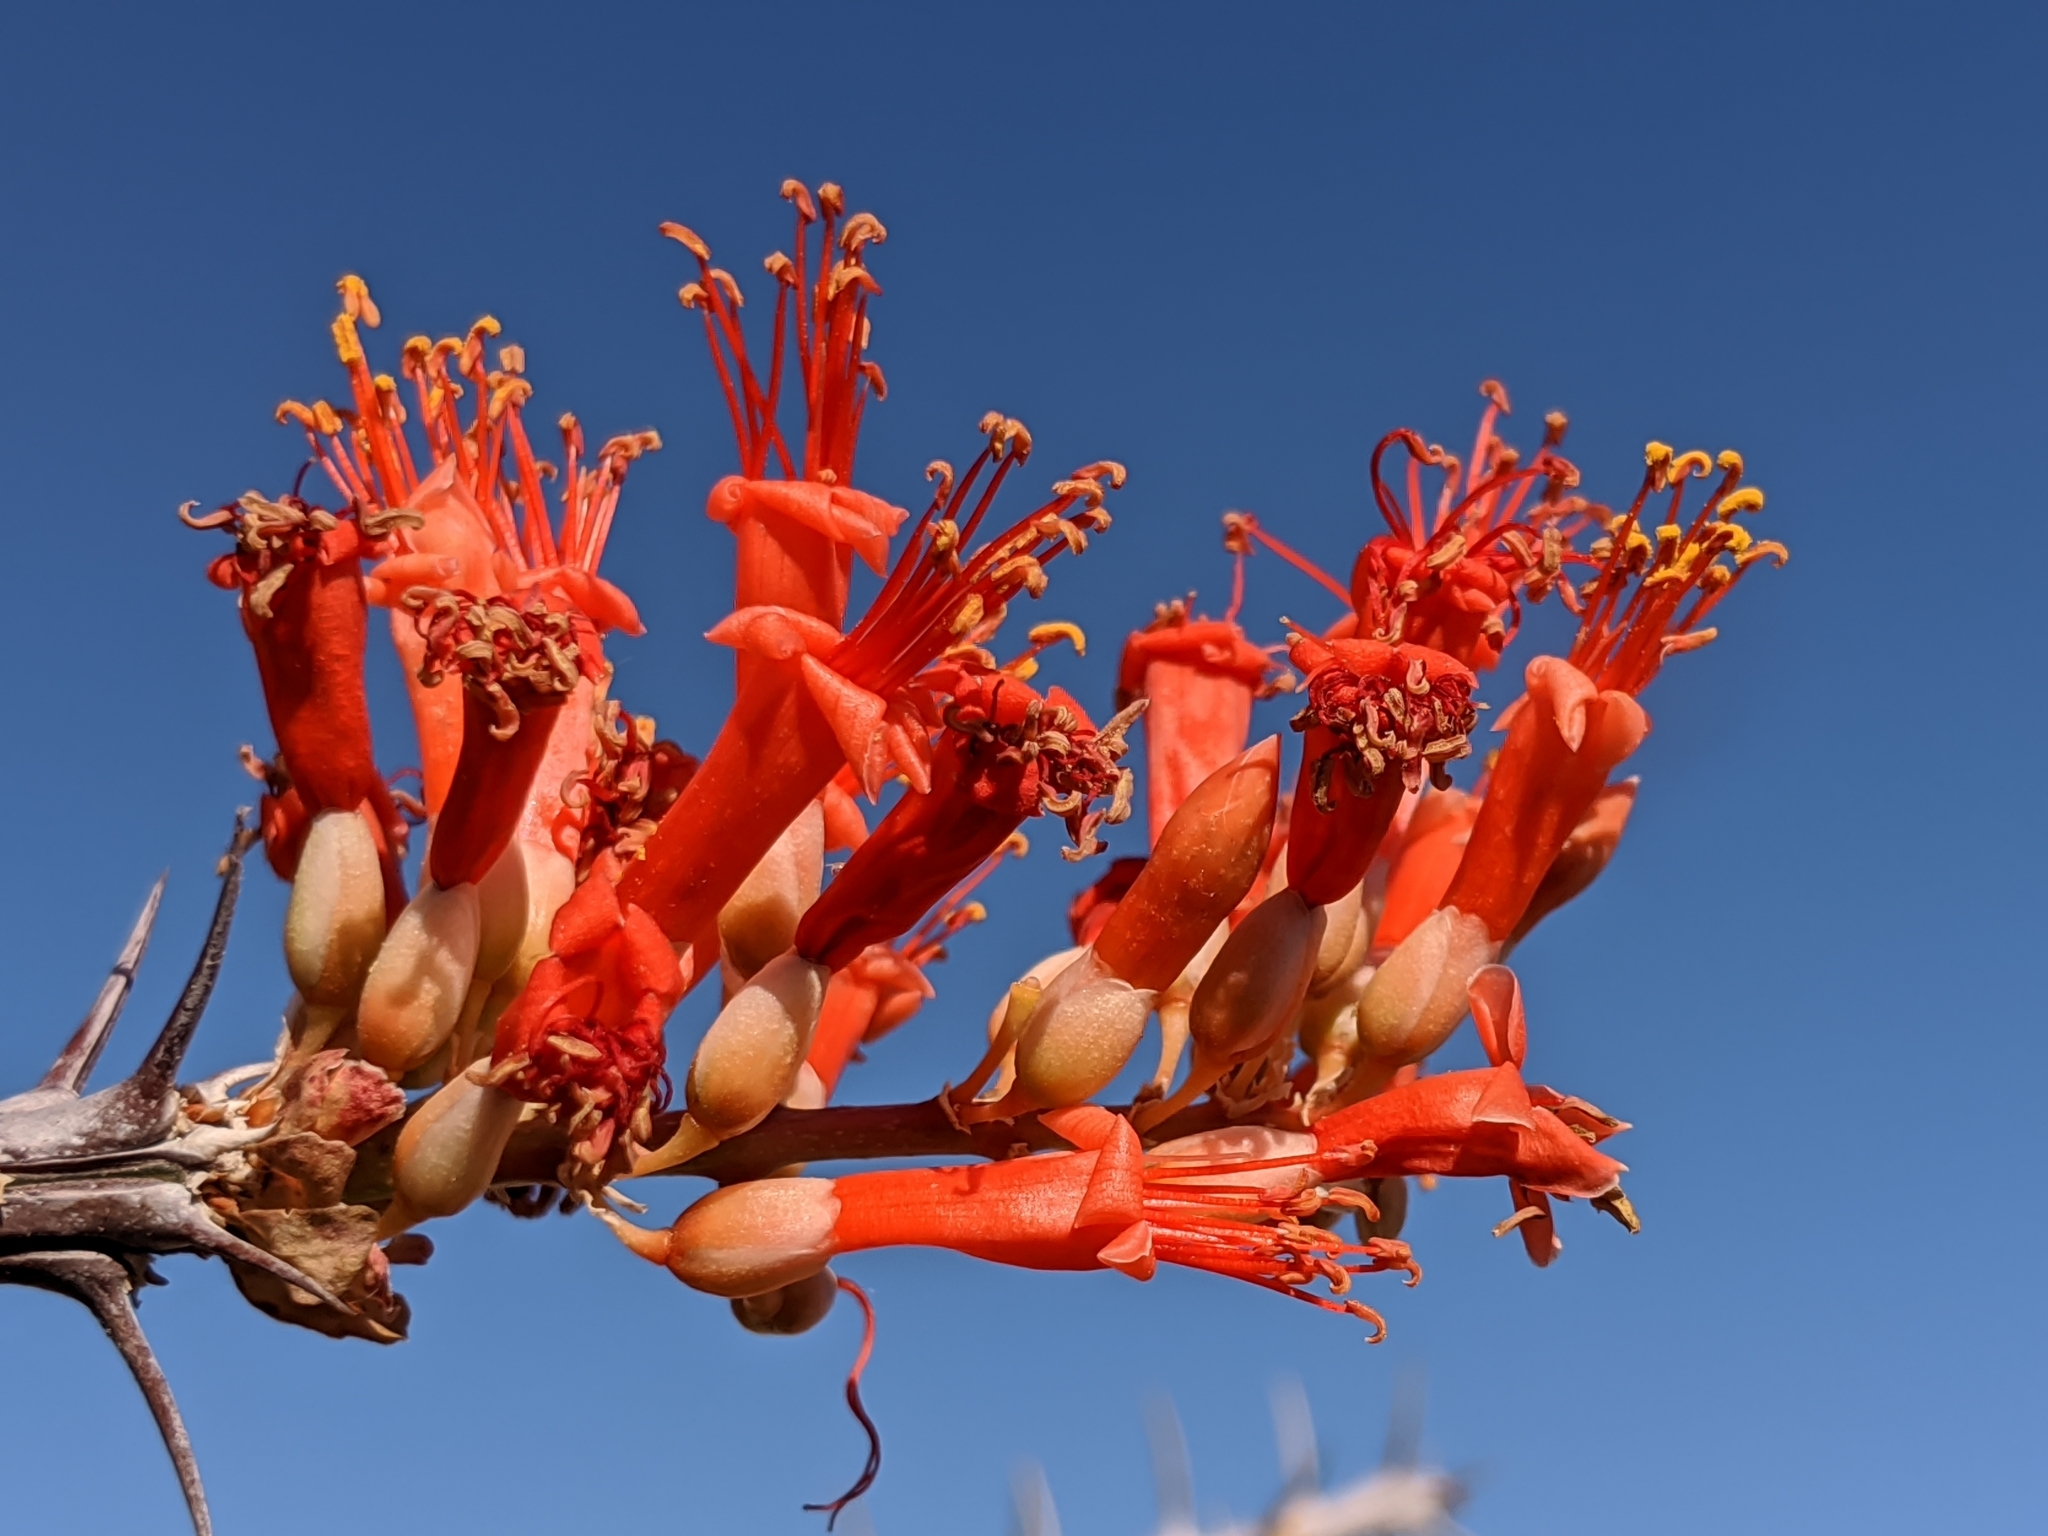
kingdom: Plantae
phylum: Tracheophyta
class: Magnoliopsida
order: Ericales
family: Fouquieriaceae
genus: Fouquieria
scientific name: Fouquieria splendens
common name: Vine-cactus
